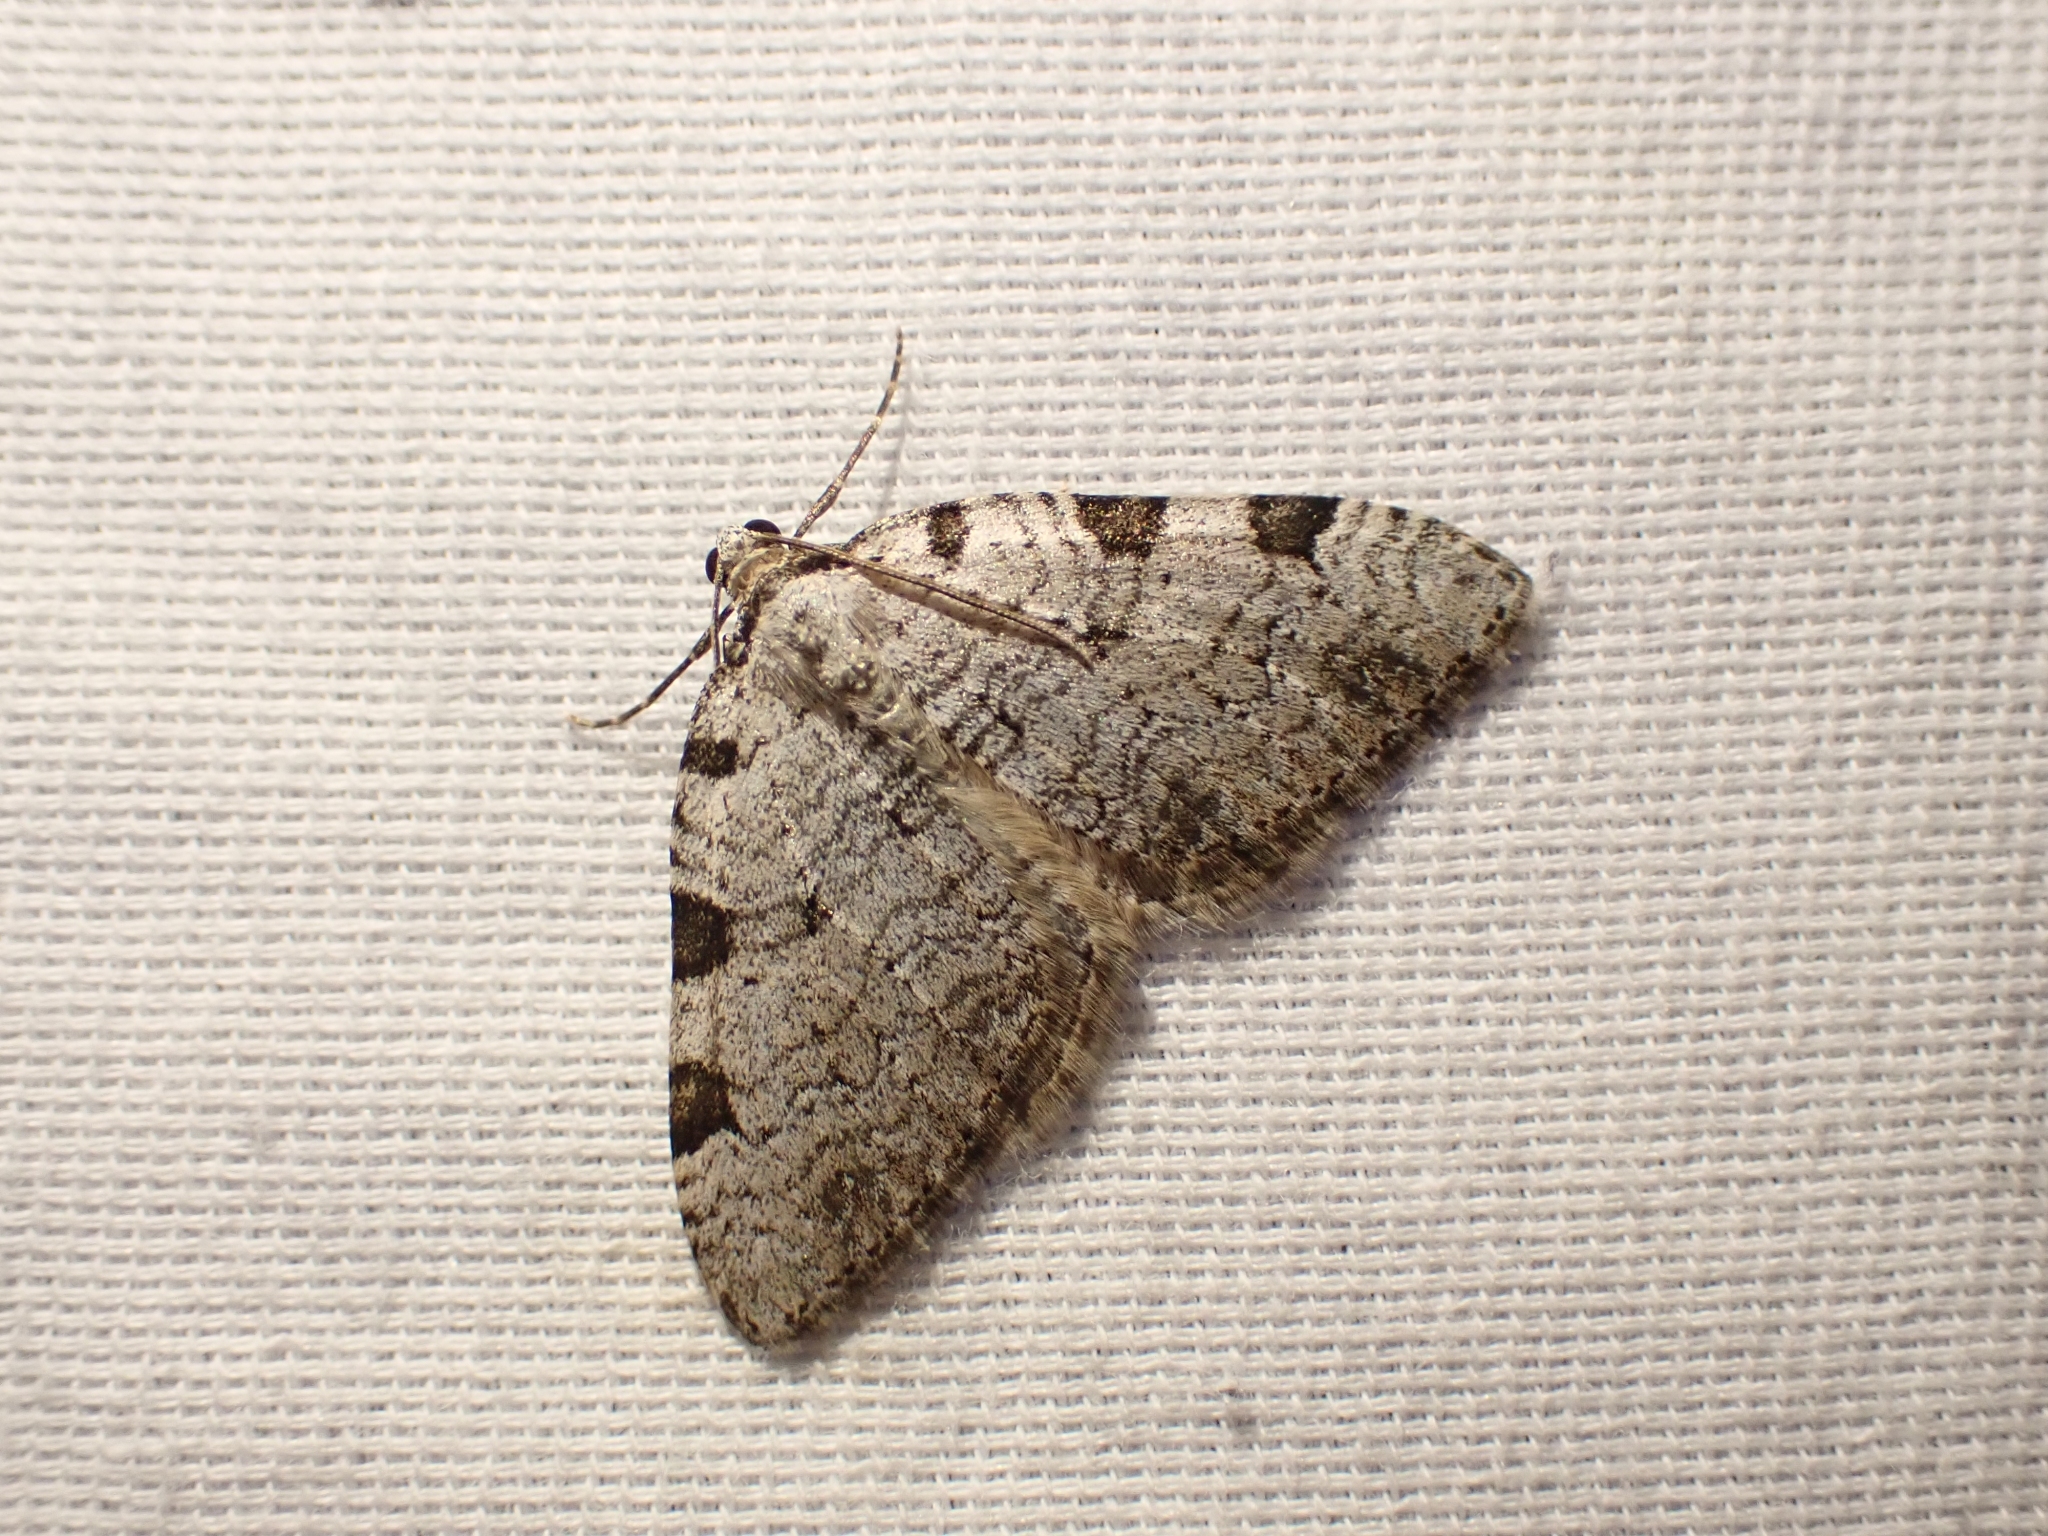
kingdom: Animalia
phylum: Arthropoda
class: Insecta
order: Lepidoptera
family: Geometridae
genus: Perizoma
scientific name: Perizoma costiguttata
